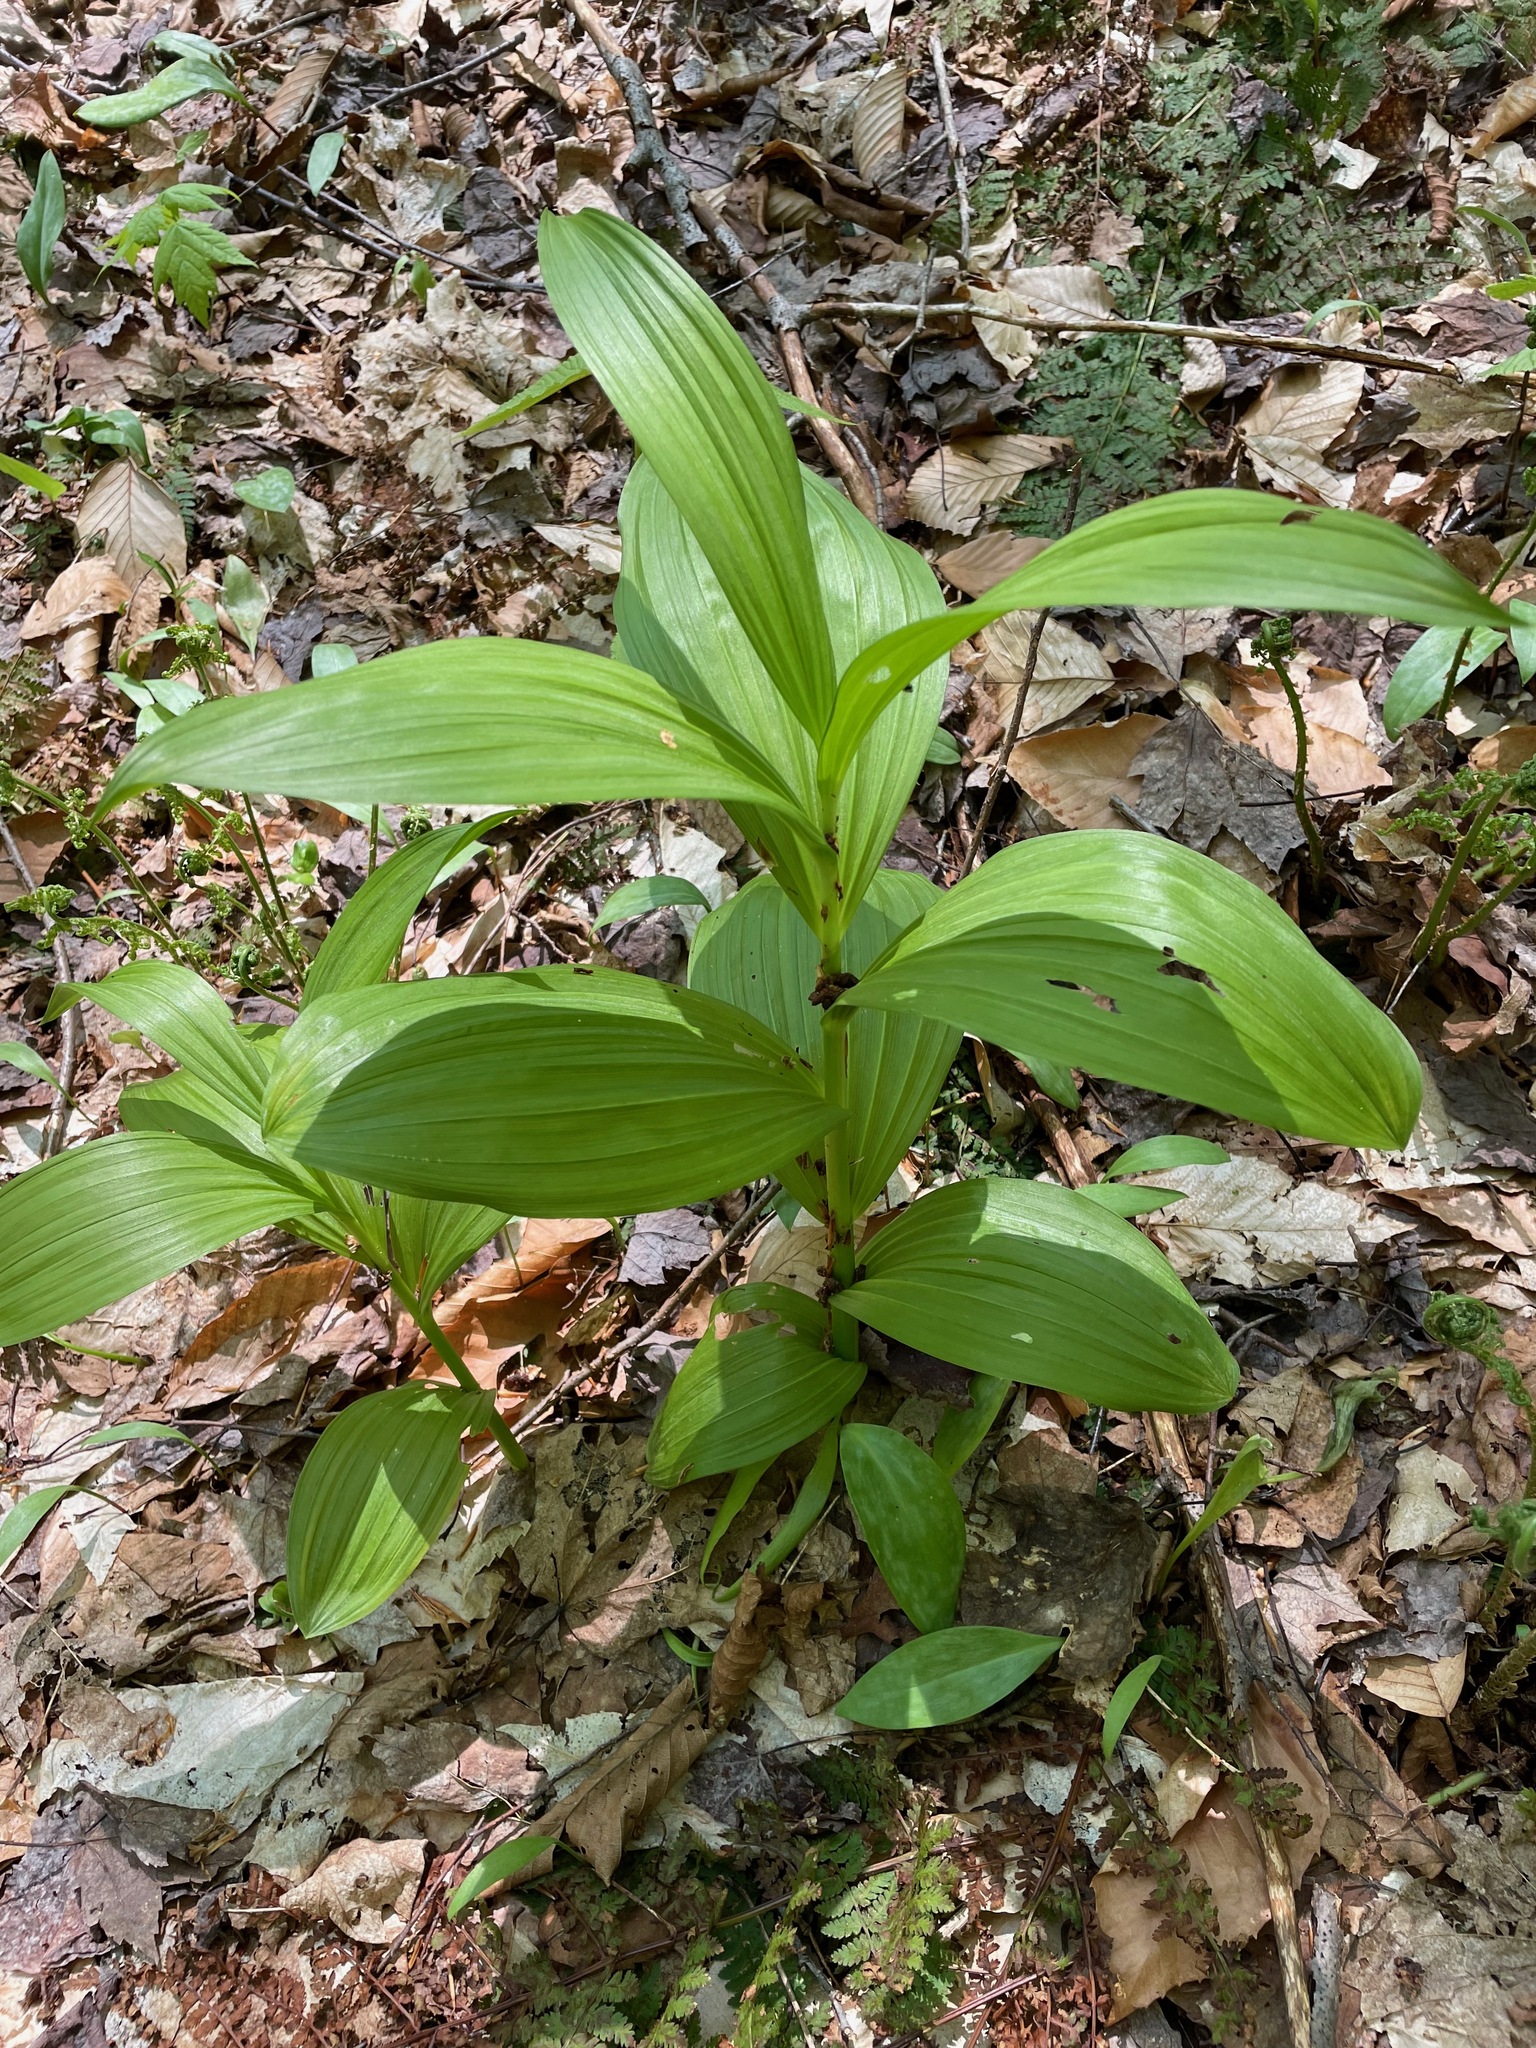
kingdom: Plantae
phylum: Tracheophyta
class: Liliopsida
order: Liliales
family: Melanthiaceae
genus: Veratrum
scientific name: Veratrum viride
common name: American false hellebore
